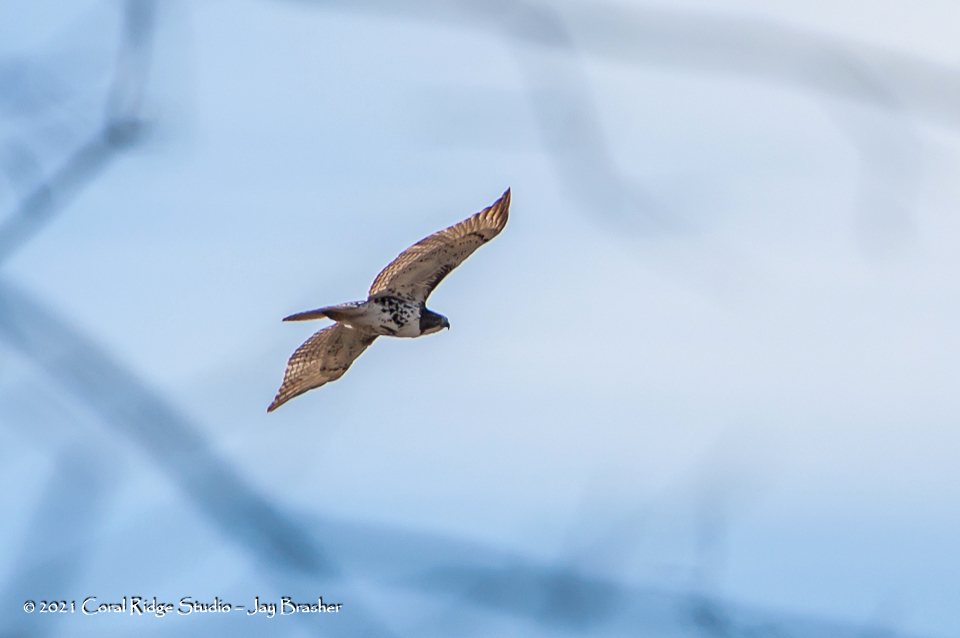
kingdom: Animalia
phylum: Chordata
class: Aves
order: Accipitriformes
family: Accipitridae
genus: Buteo
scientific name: Buteo jamaicensis
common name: Red-tailed hawk
